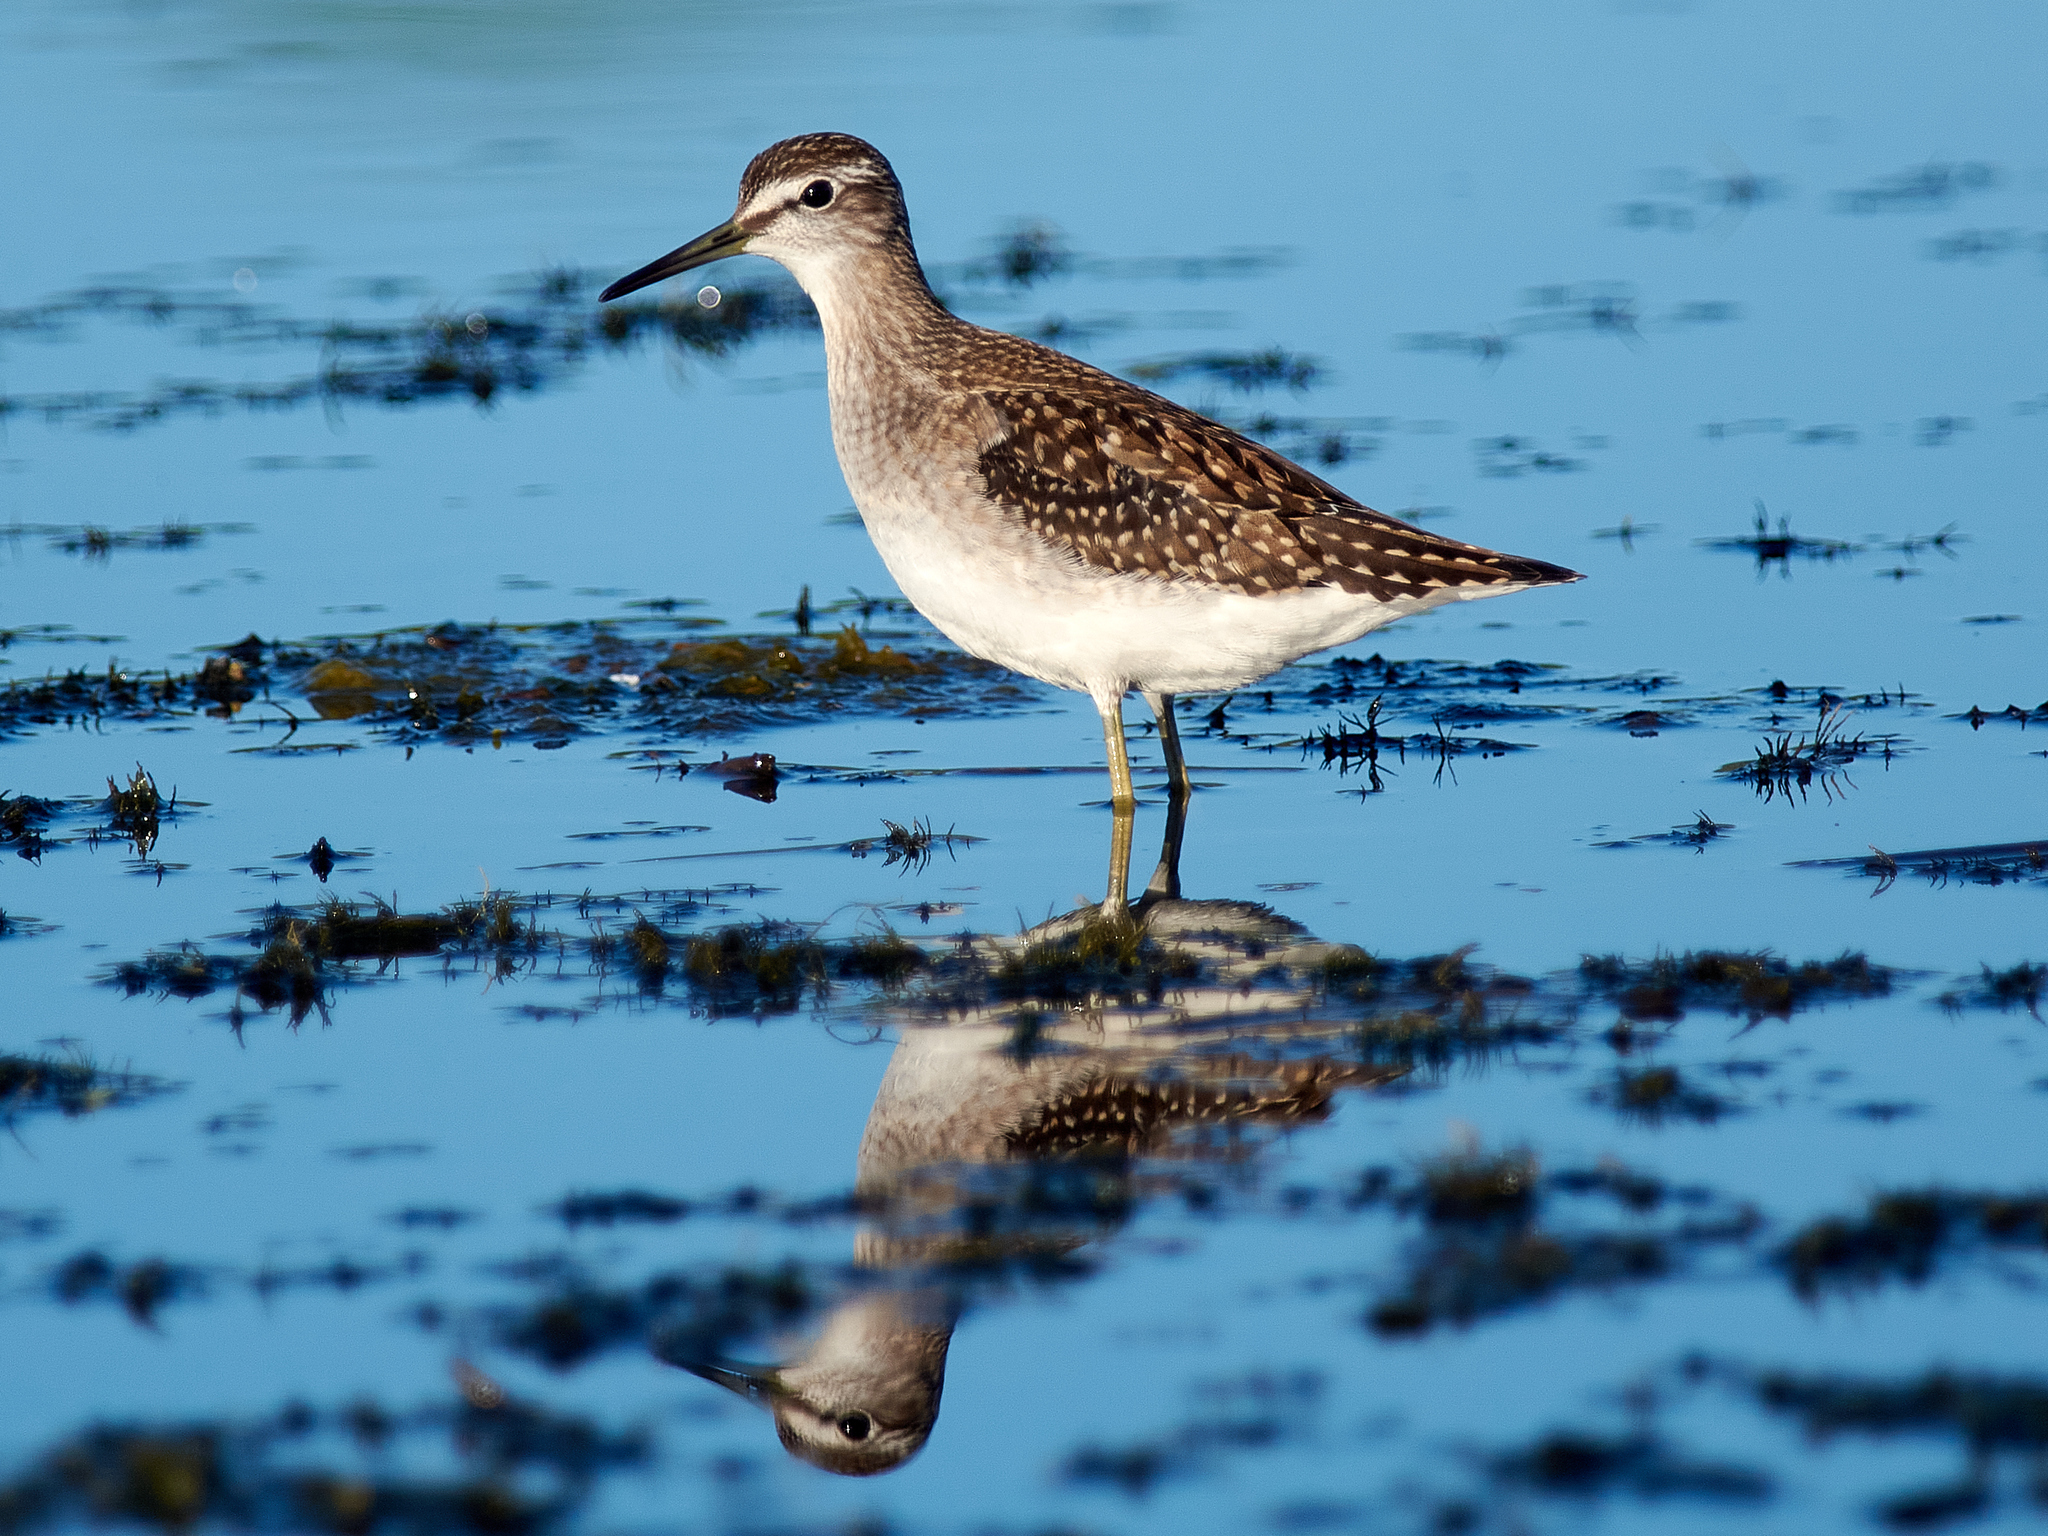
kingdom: Animalia
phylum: Chordata
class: Aves
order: Charadriiformes
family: Scolopacidae
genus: Tringa
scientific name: Tringa glareola
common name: Wood sandpiper
